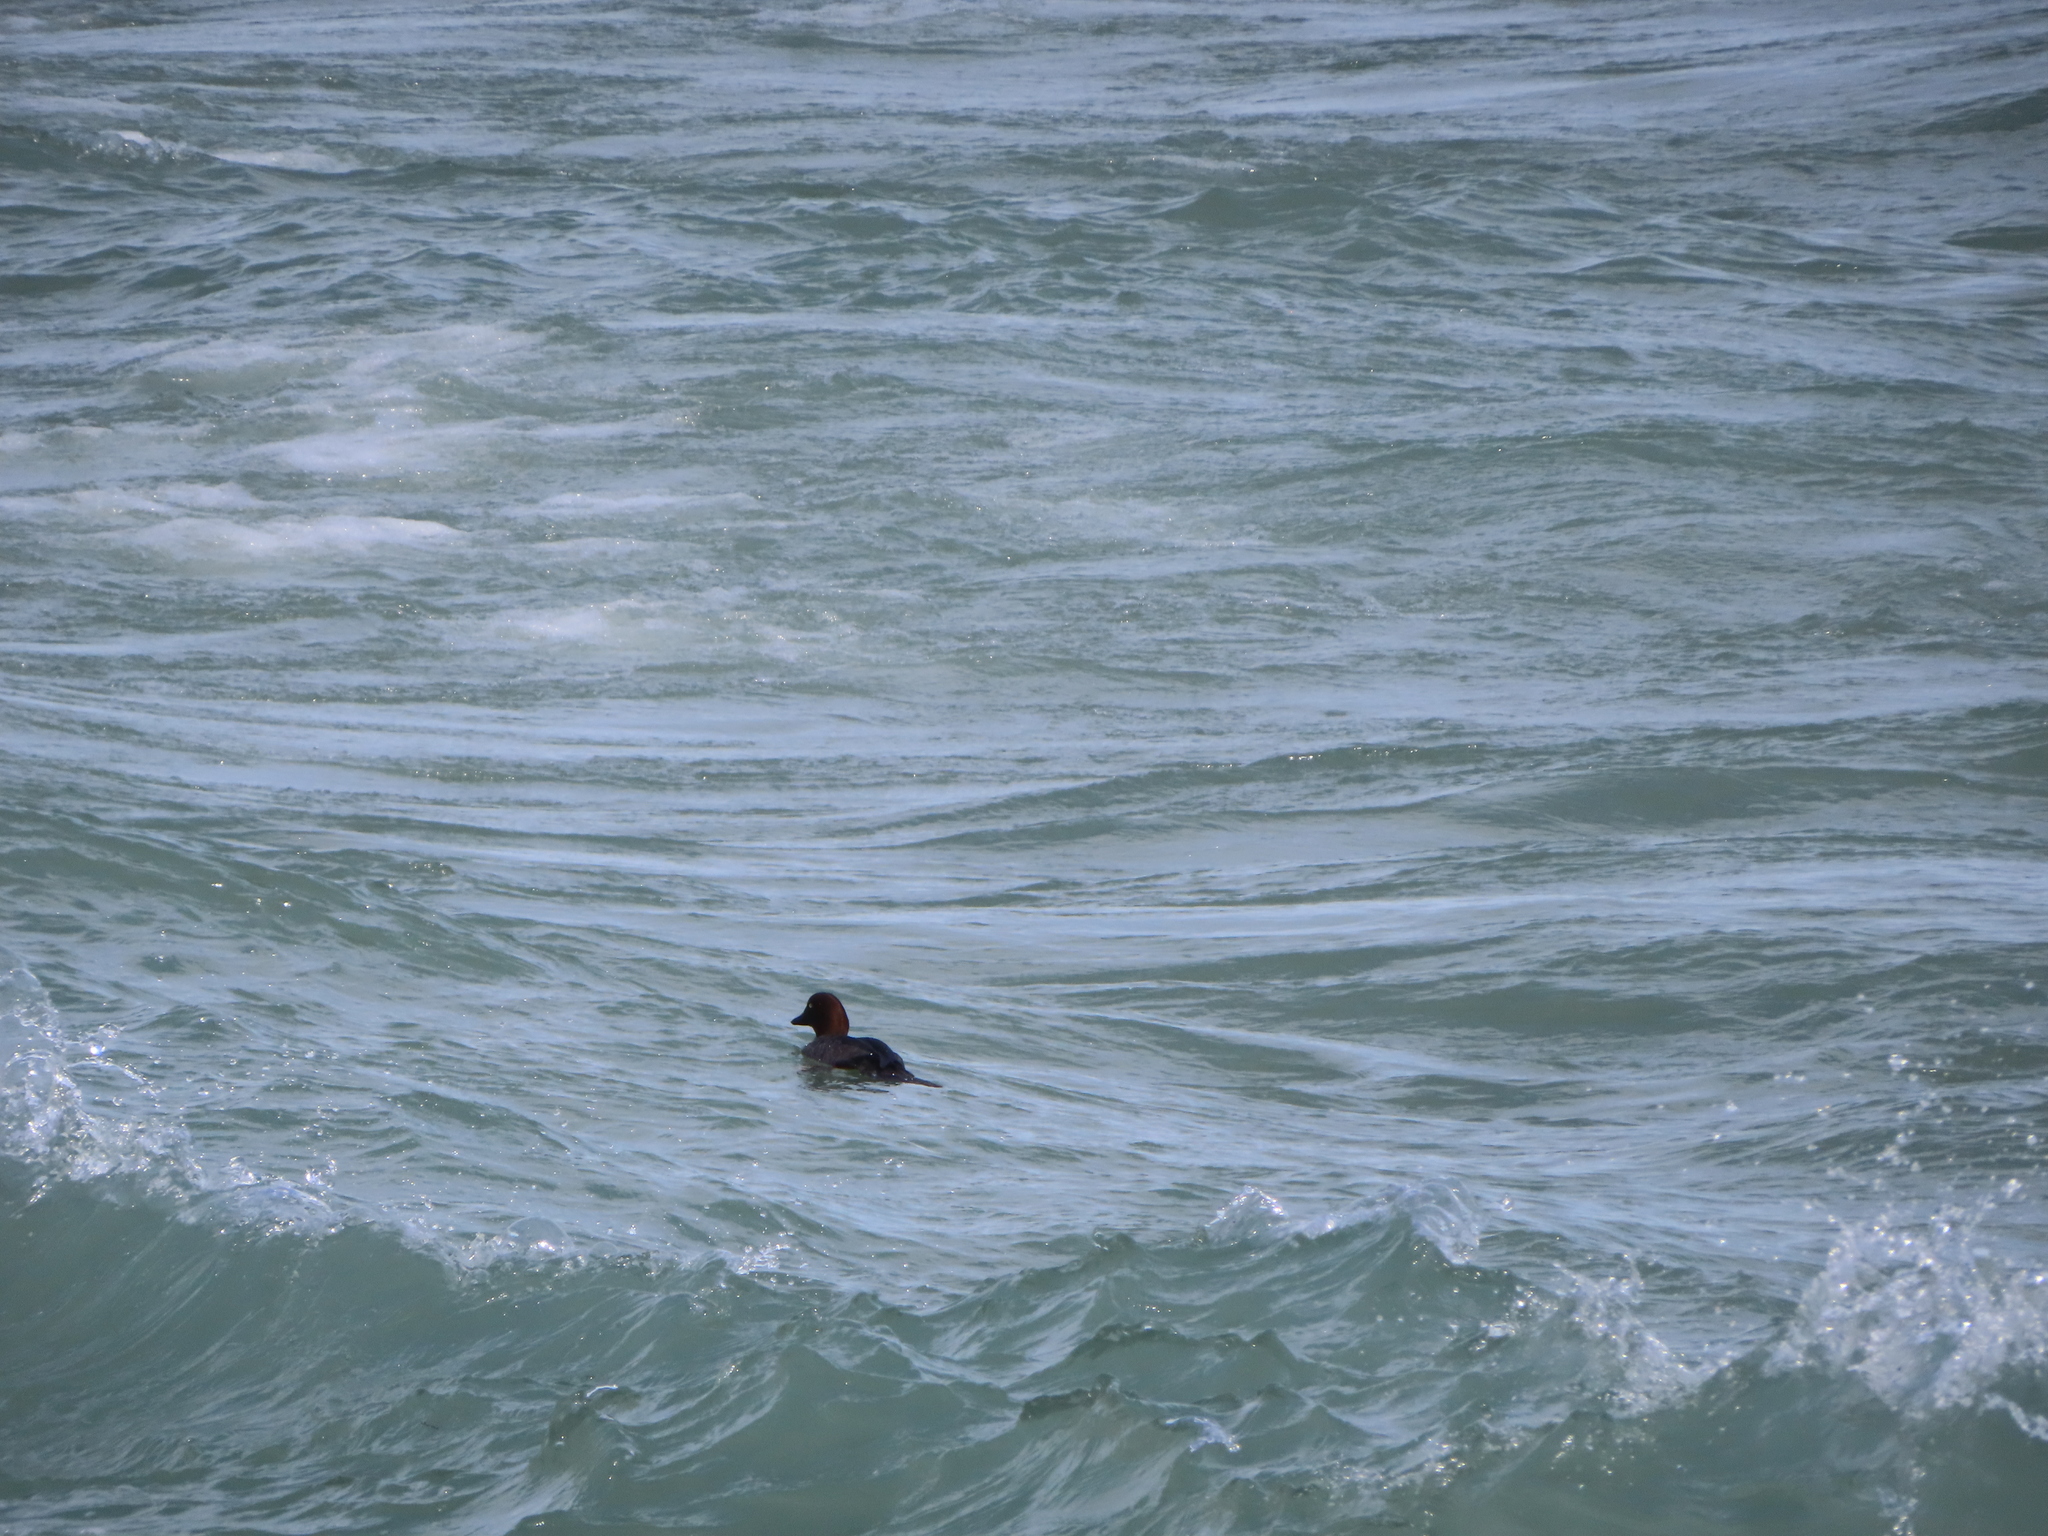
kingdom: Animalia
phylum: Chordata
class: Aves
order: Anseriformes
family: Anatidae
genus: Bucephala
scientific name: Bucephala clangula
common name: Common goldeneye
